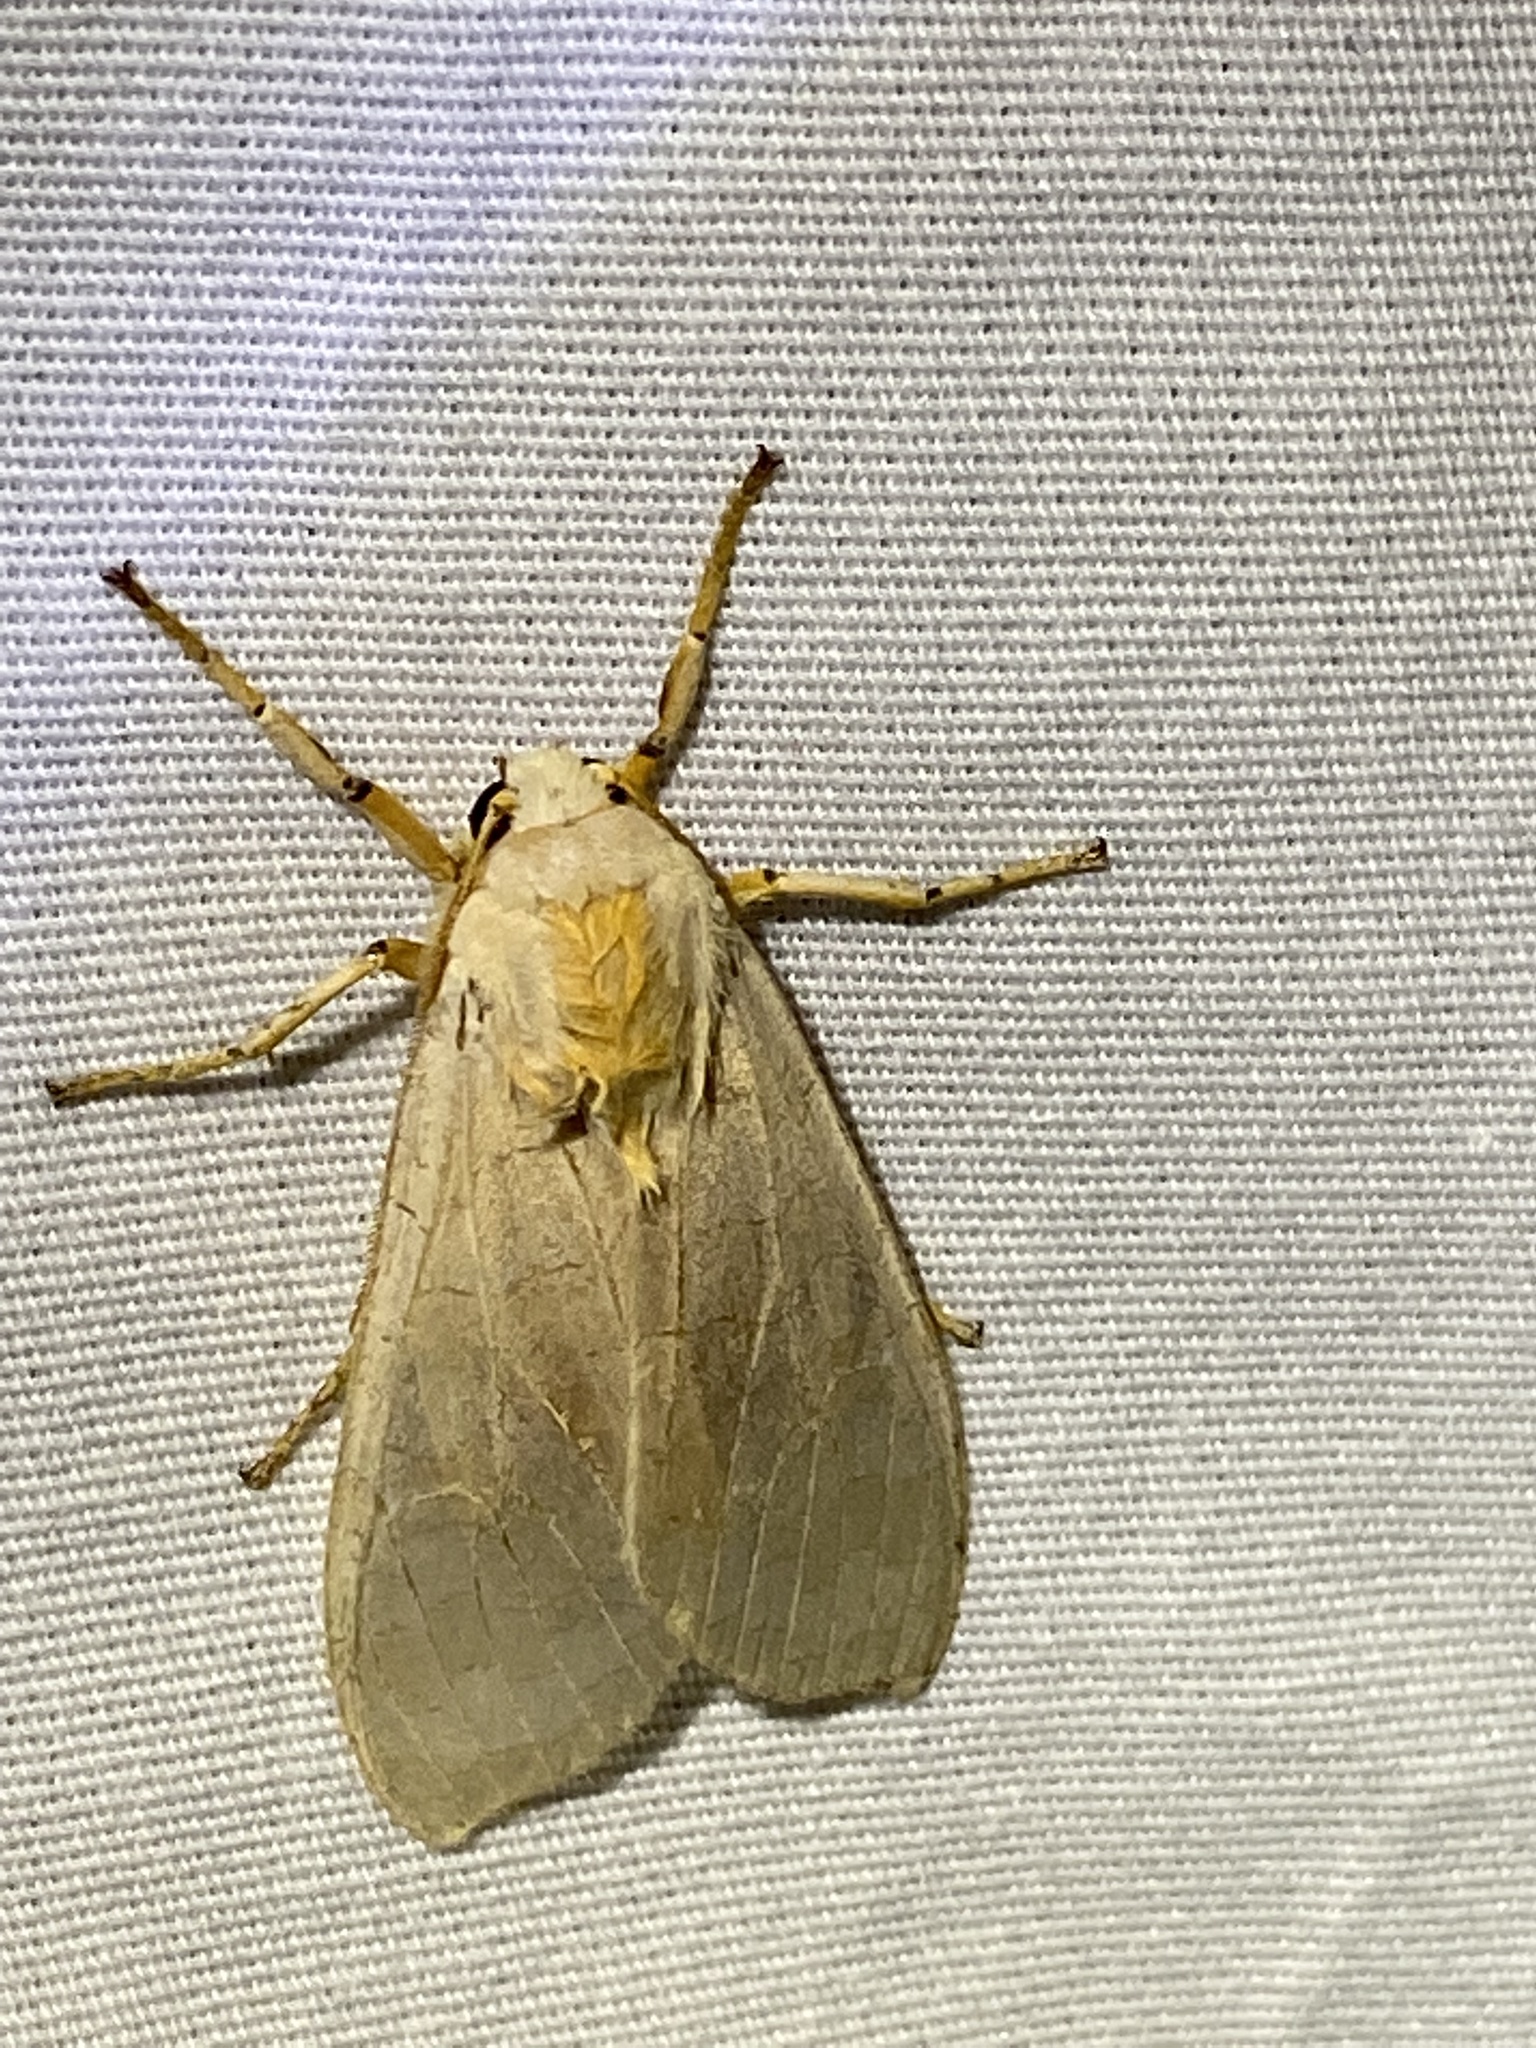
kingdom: Animalia
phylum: Arthropoda
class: Insecta
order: Lepidoptera
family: Erebidae
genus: Halysidota
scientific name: Halysidota
